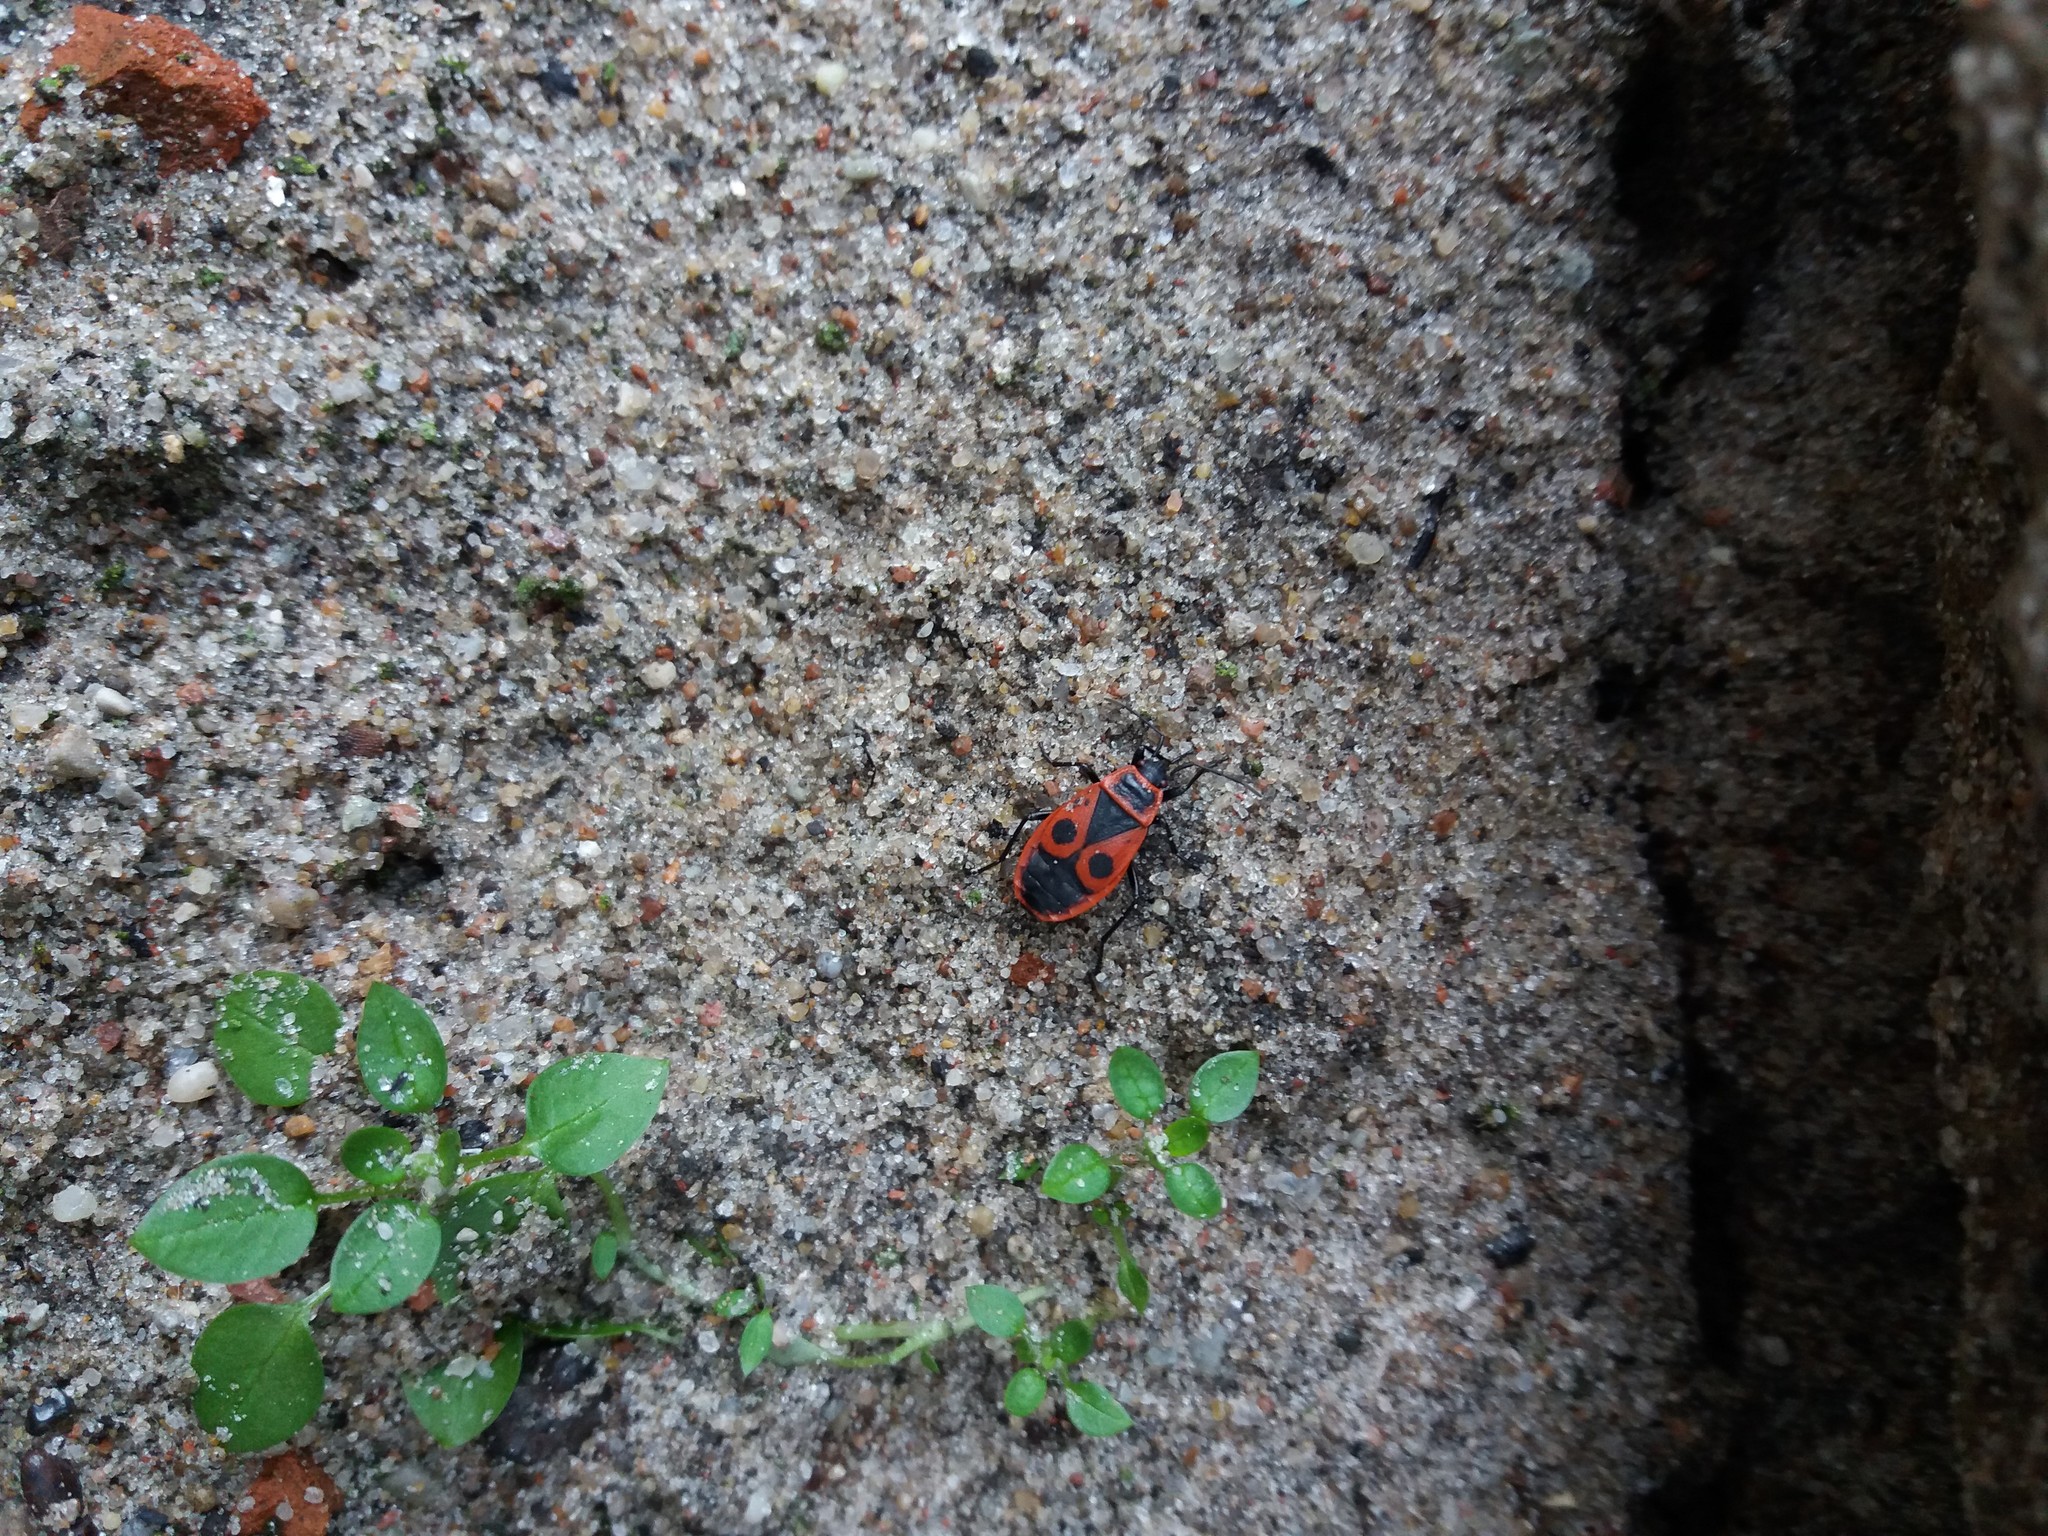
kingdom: Animalia
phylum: Arthropoda
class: Insecta
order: Hemiptera
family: Pyrrhocoridae
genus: Pyrrhocoris
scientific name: Pyrrhocoris apterus
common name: Firebug
